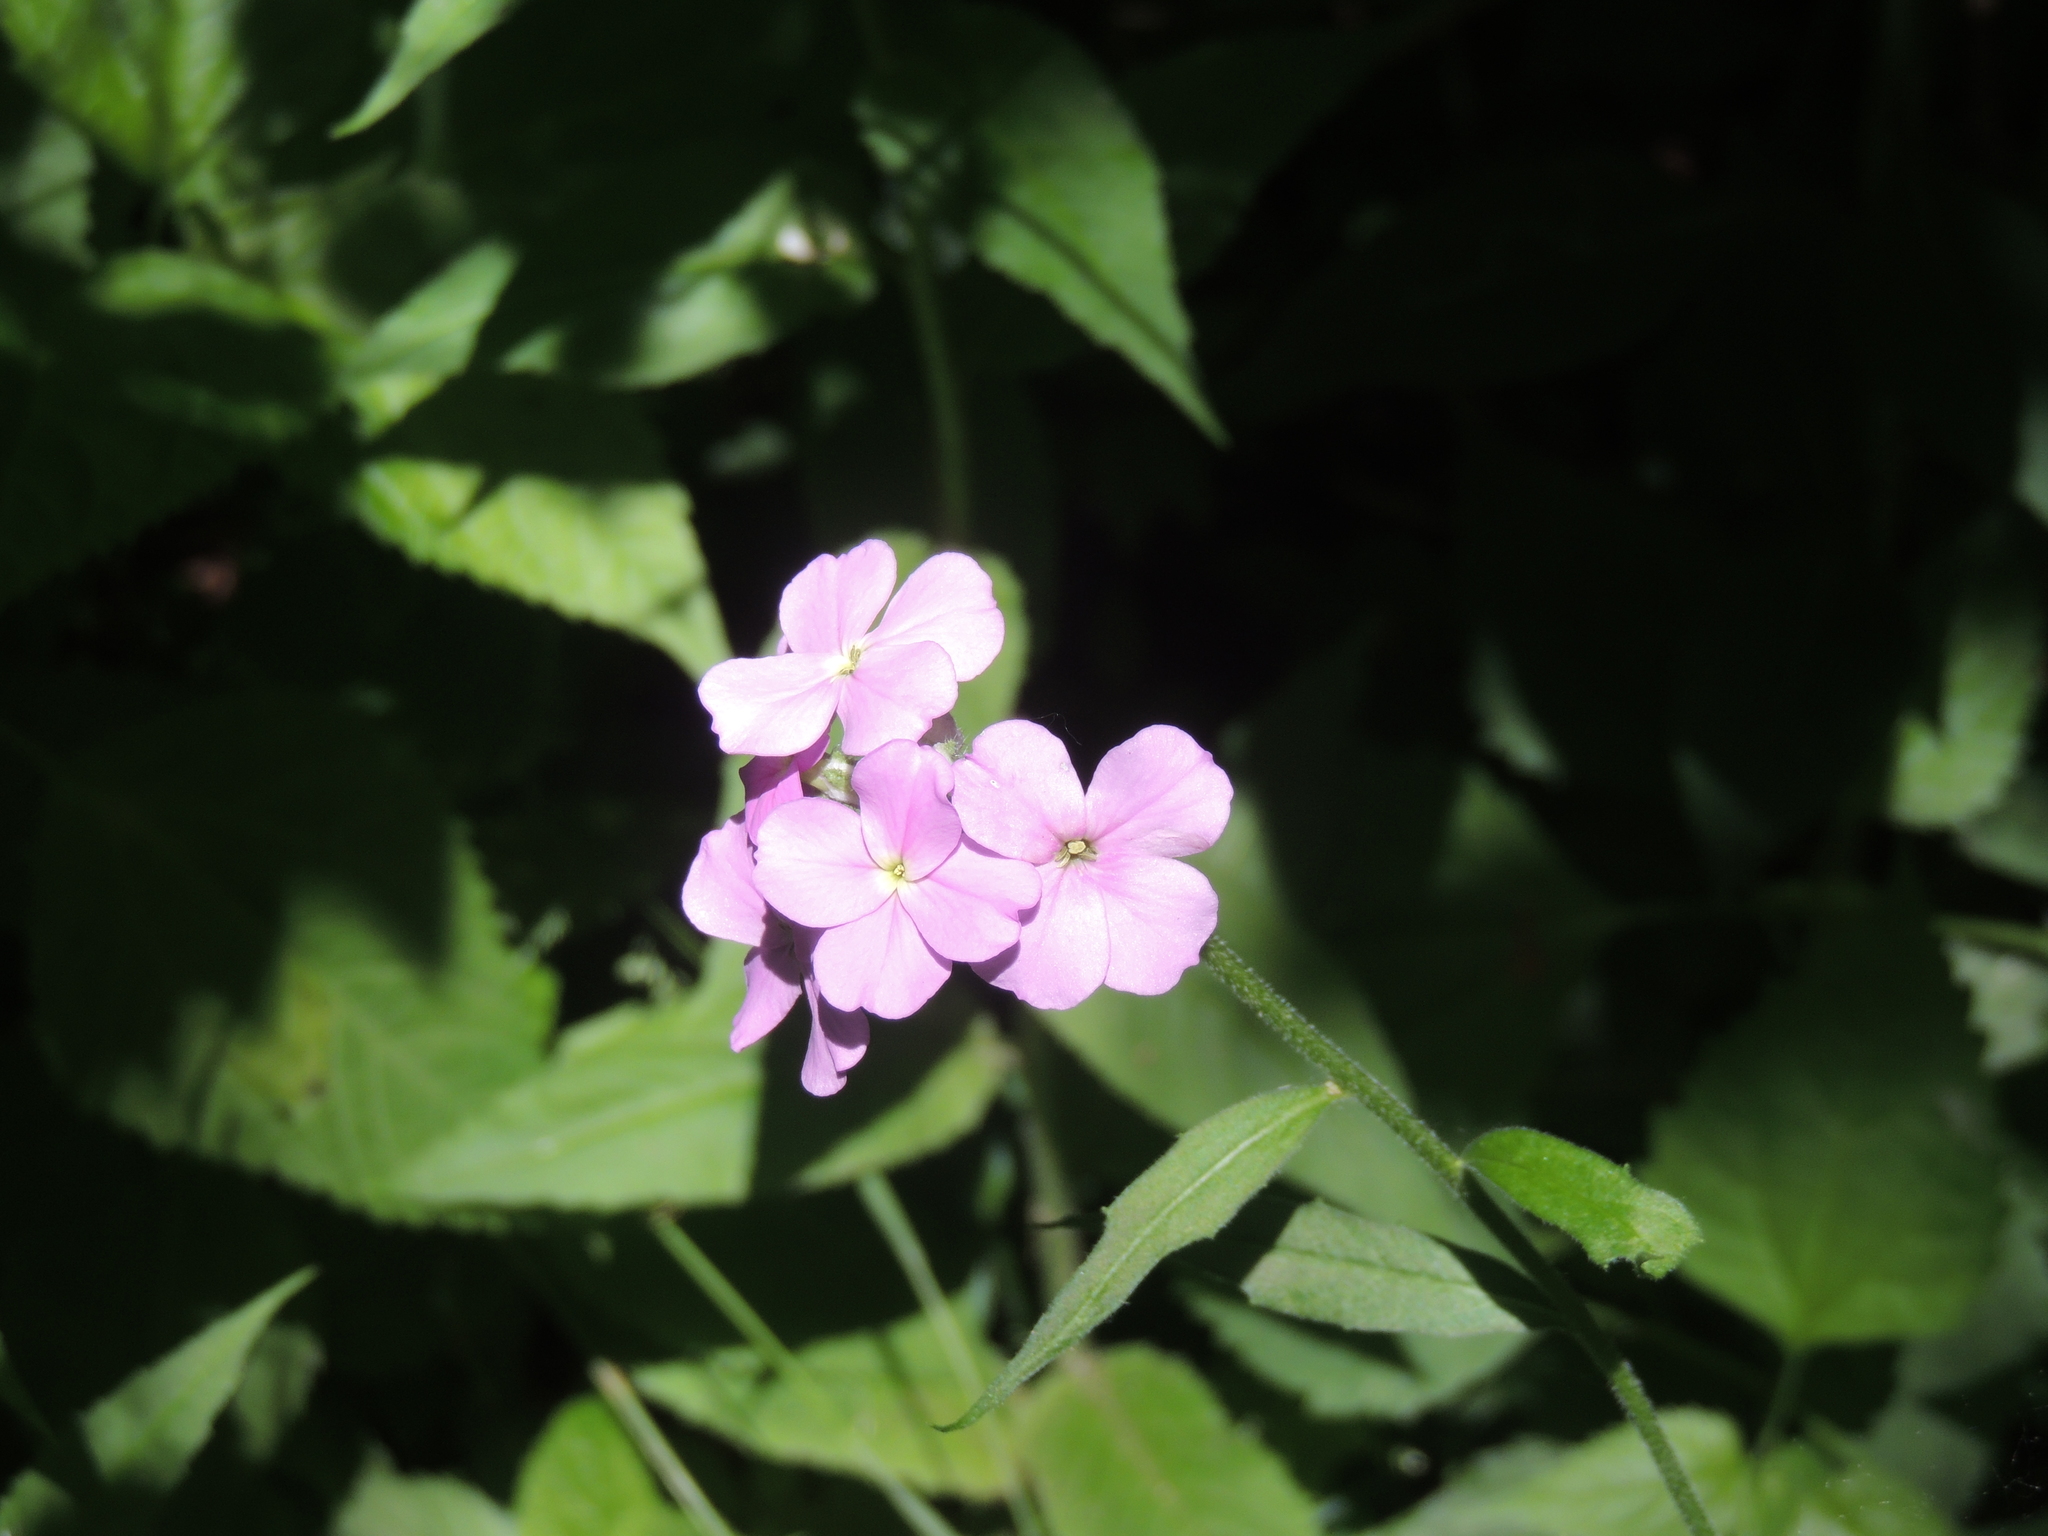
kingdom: Plantae
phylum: Tracheophyta
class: Magnoliopsida
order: Brassicales
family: Brassicaceae
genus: Hesperis
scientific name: Hesperis matronalis
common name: Dame's-violet
